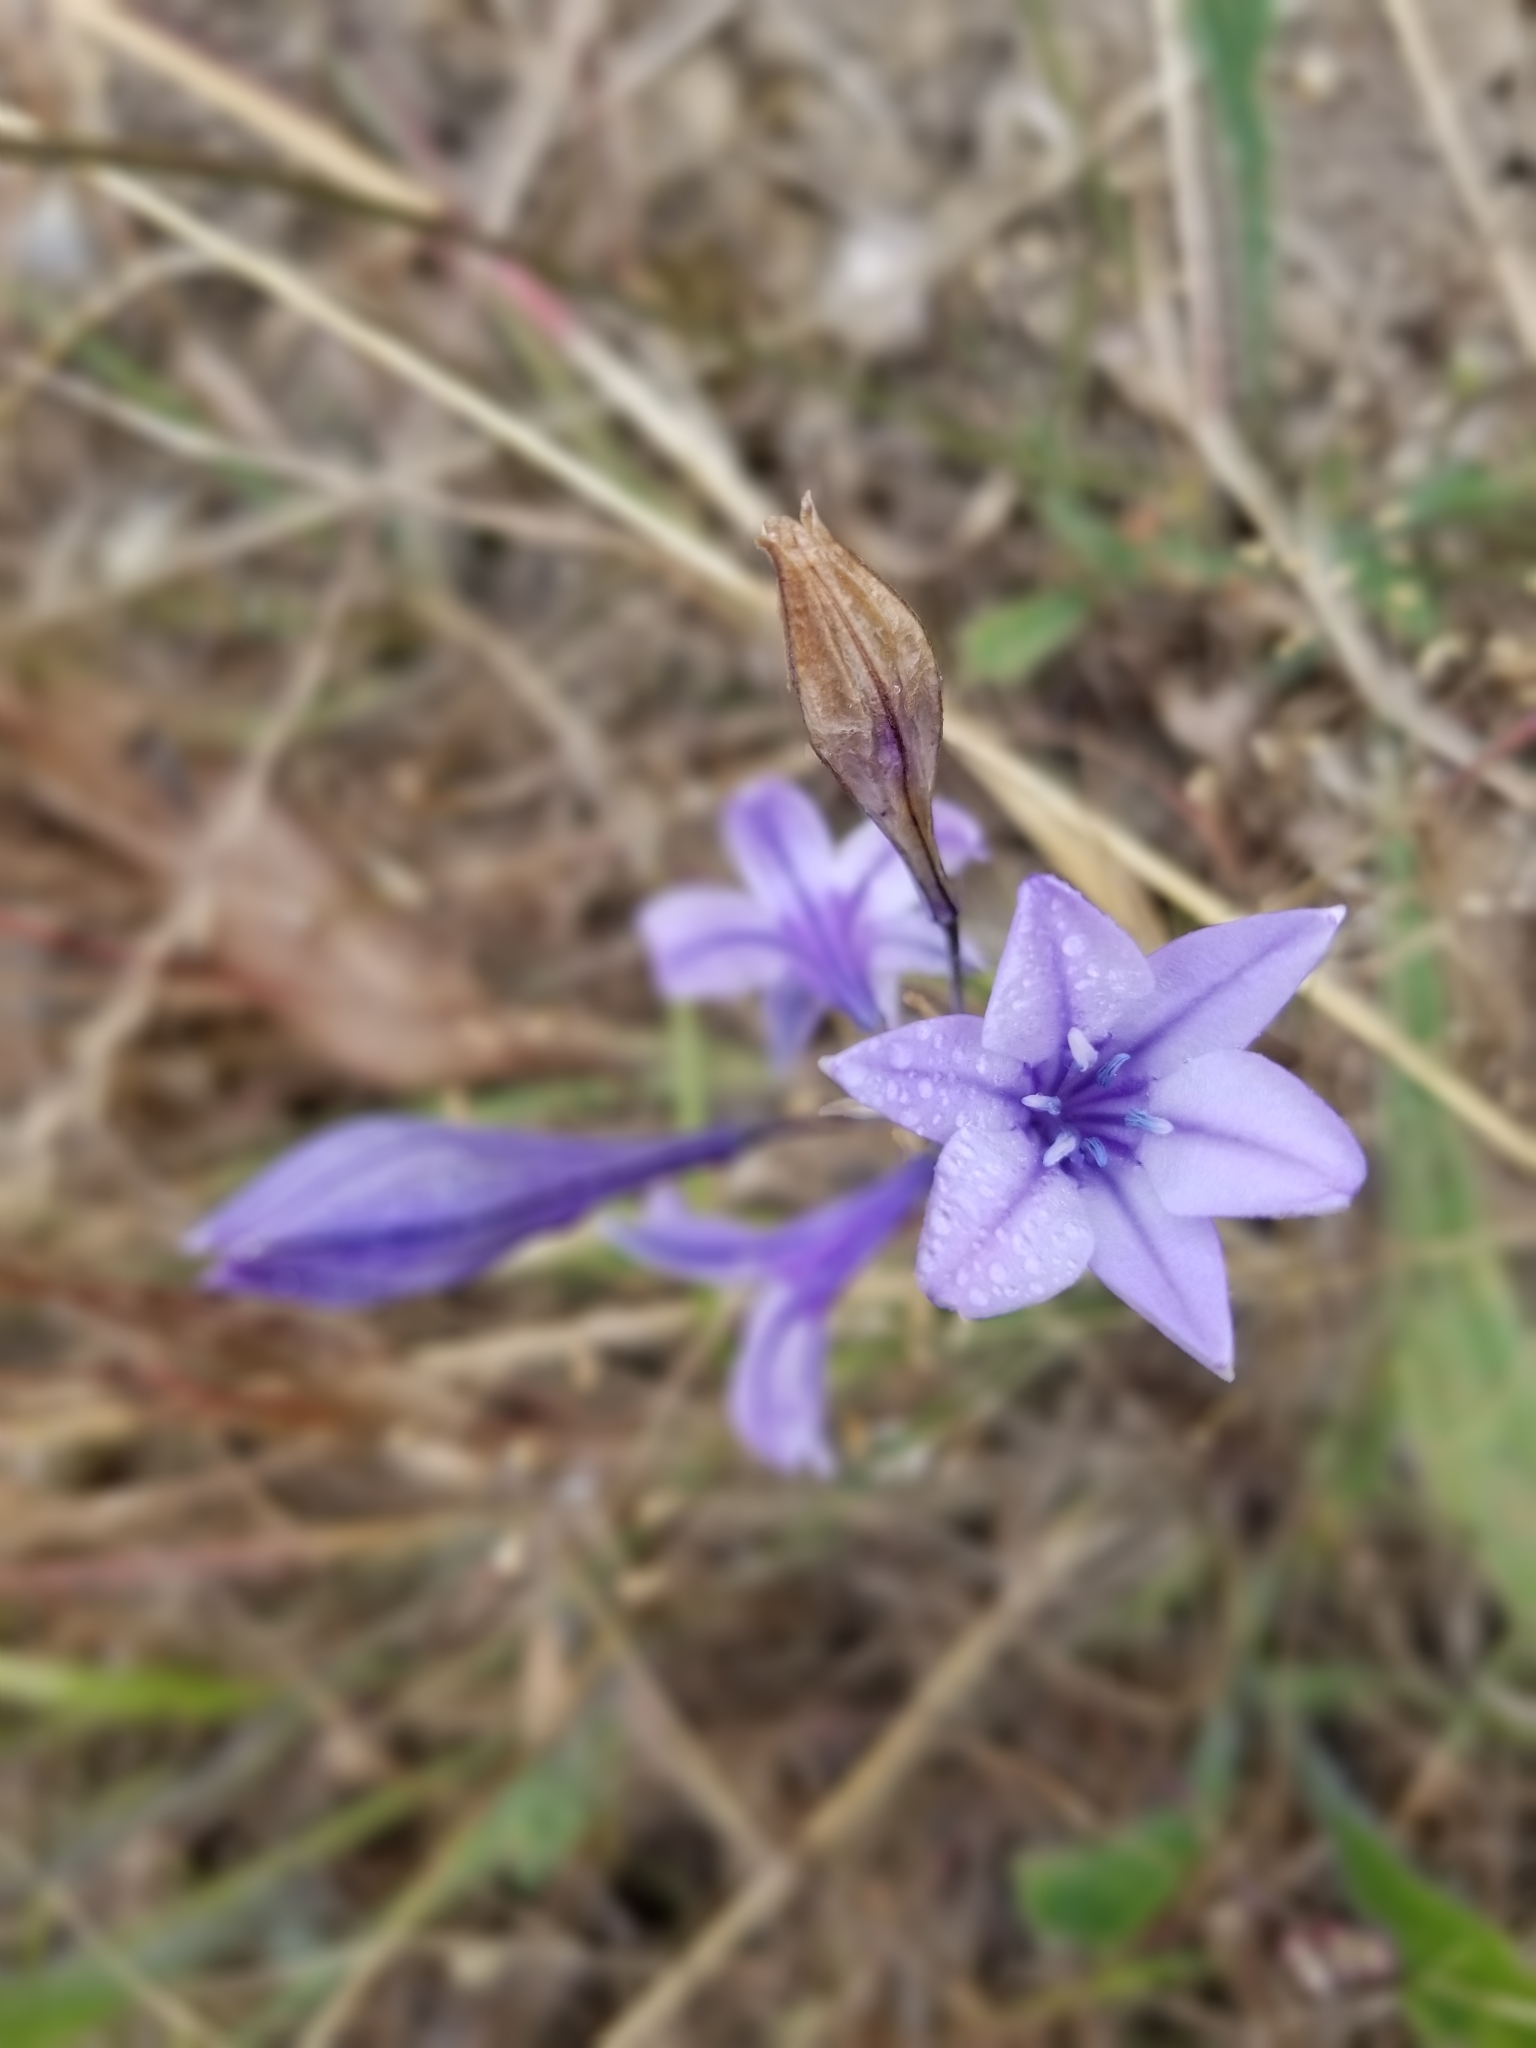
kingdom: Plantae
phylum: Tracheophyta
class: Liliopsida
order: Asparagales
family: Asparagaceae
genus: Triteleia
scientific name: Triteleia laxa
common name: Triplet-lily
